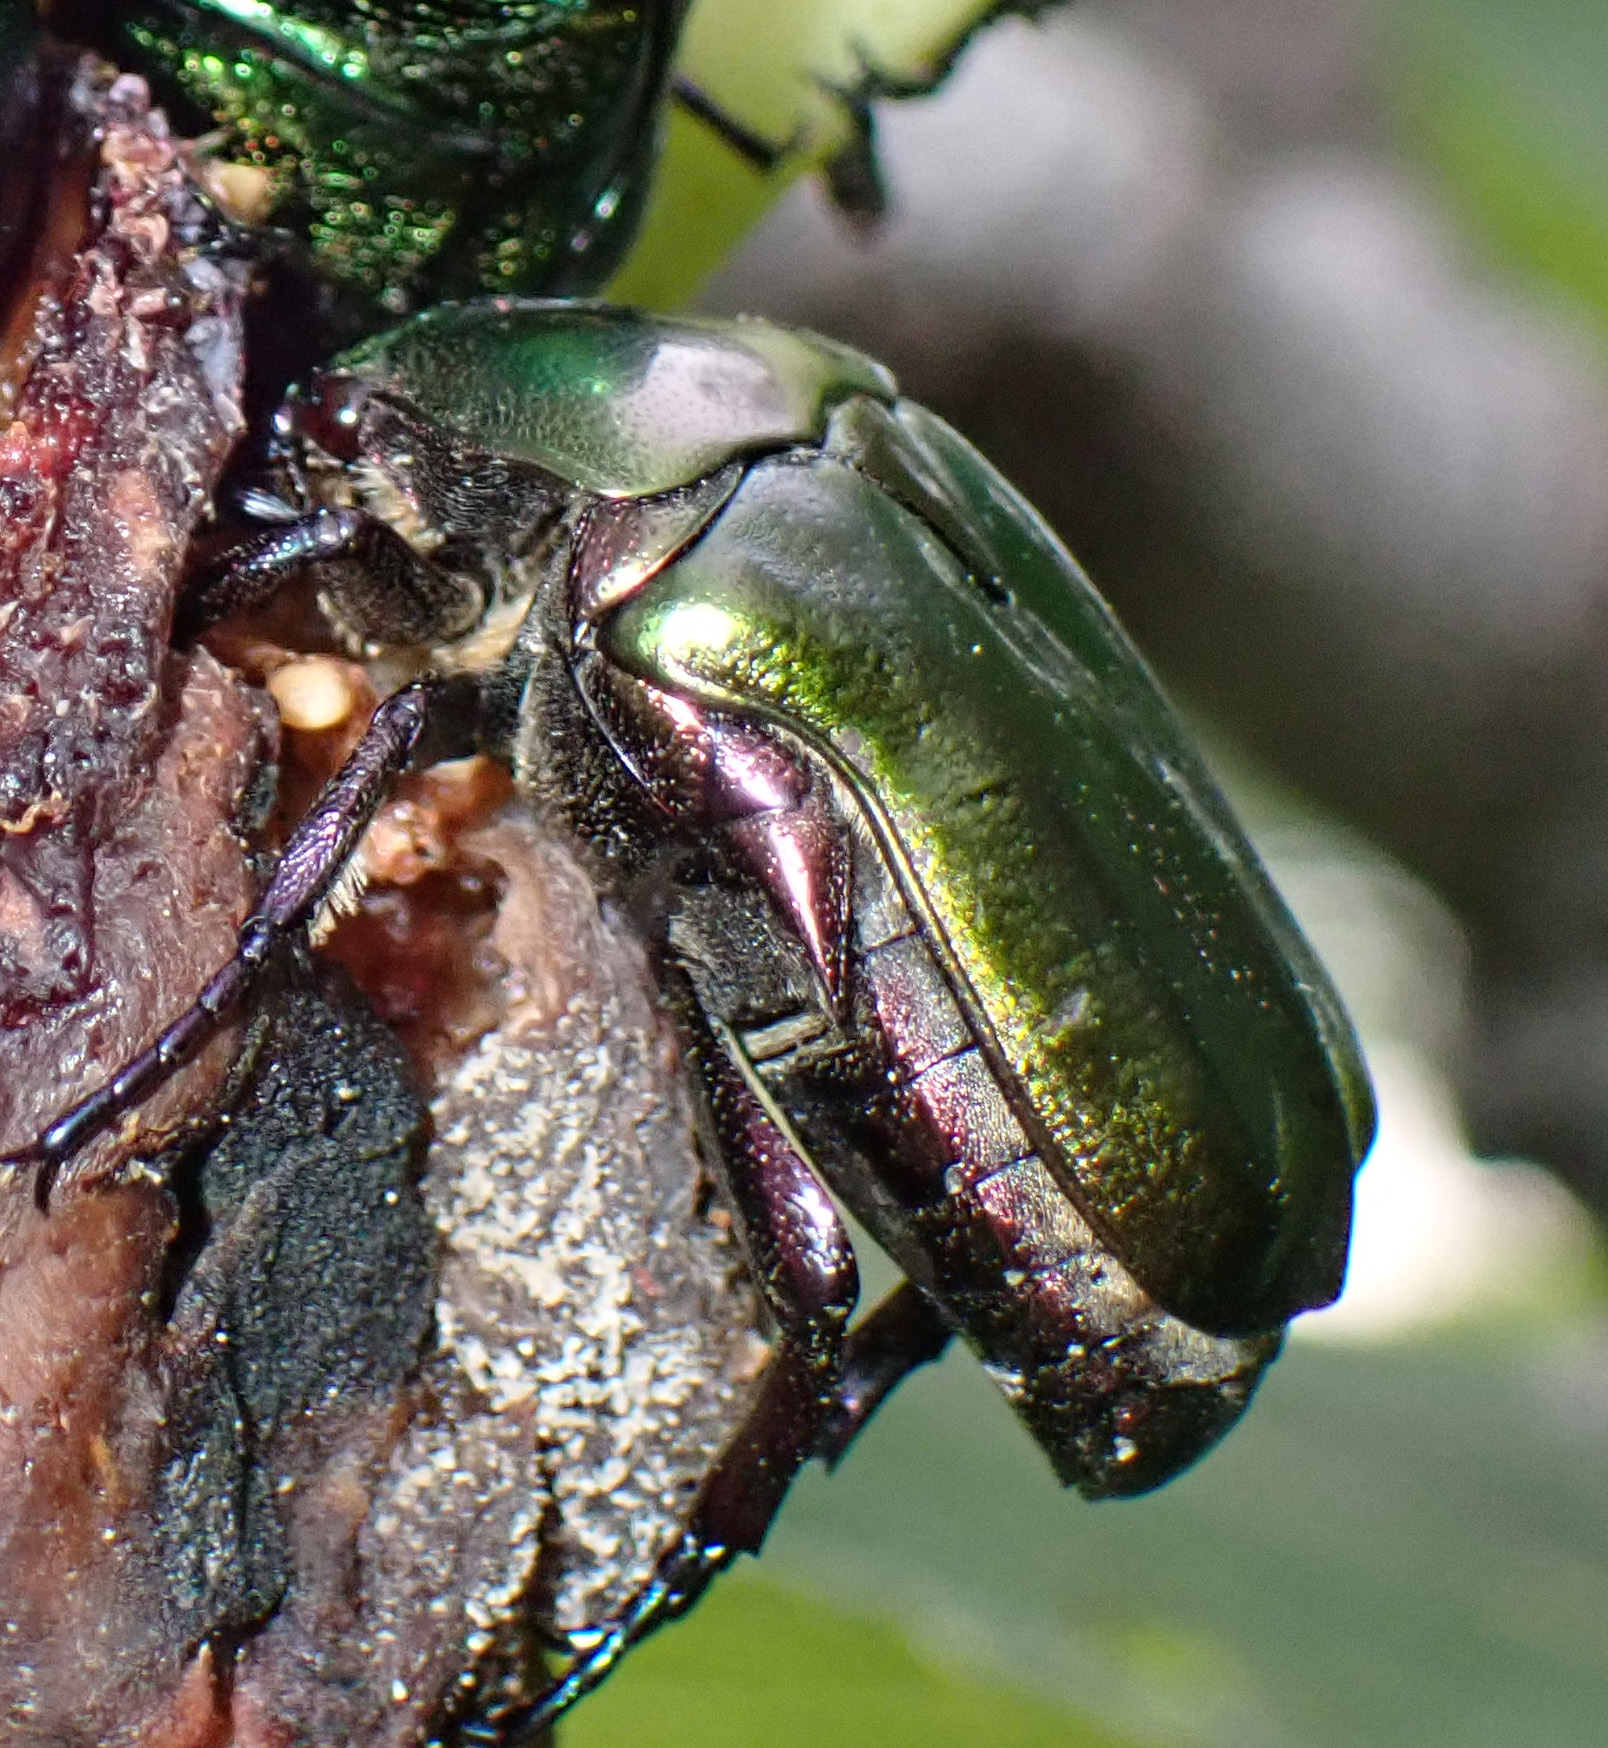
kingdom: Animalia
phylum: Arthropoda
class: Insecta
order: Coleoptera
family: Scarabaeidae
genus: Protaetia
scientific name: Protaetia cuprea
